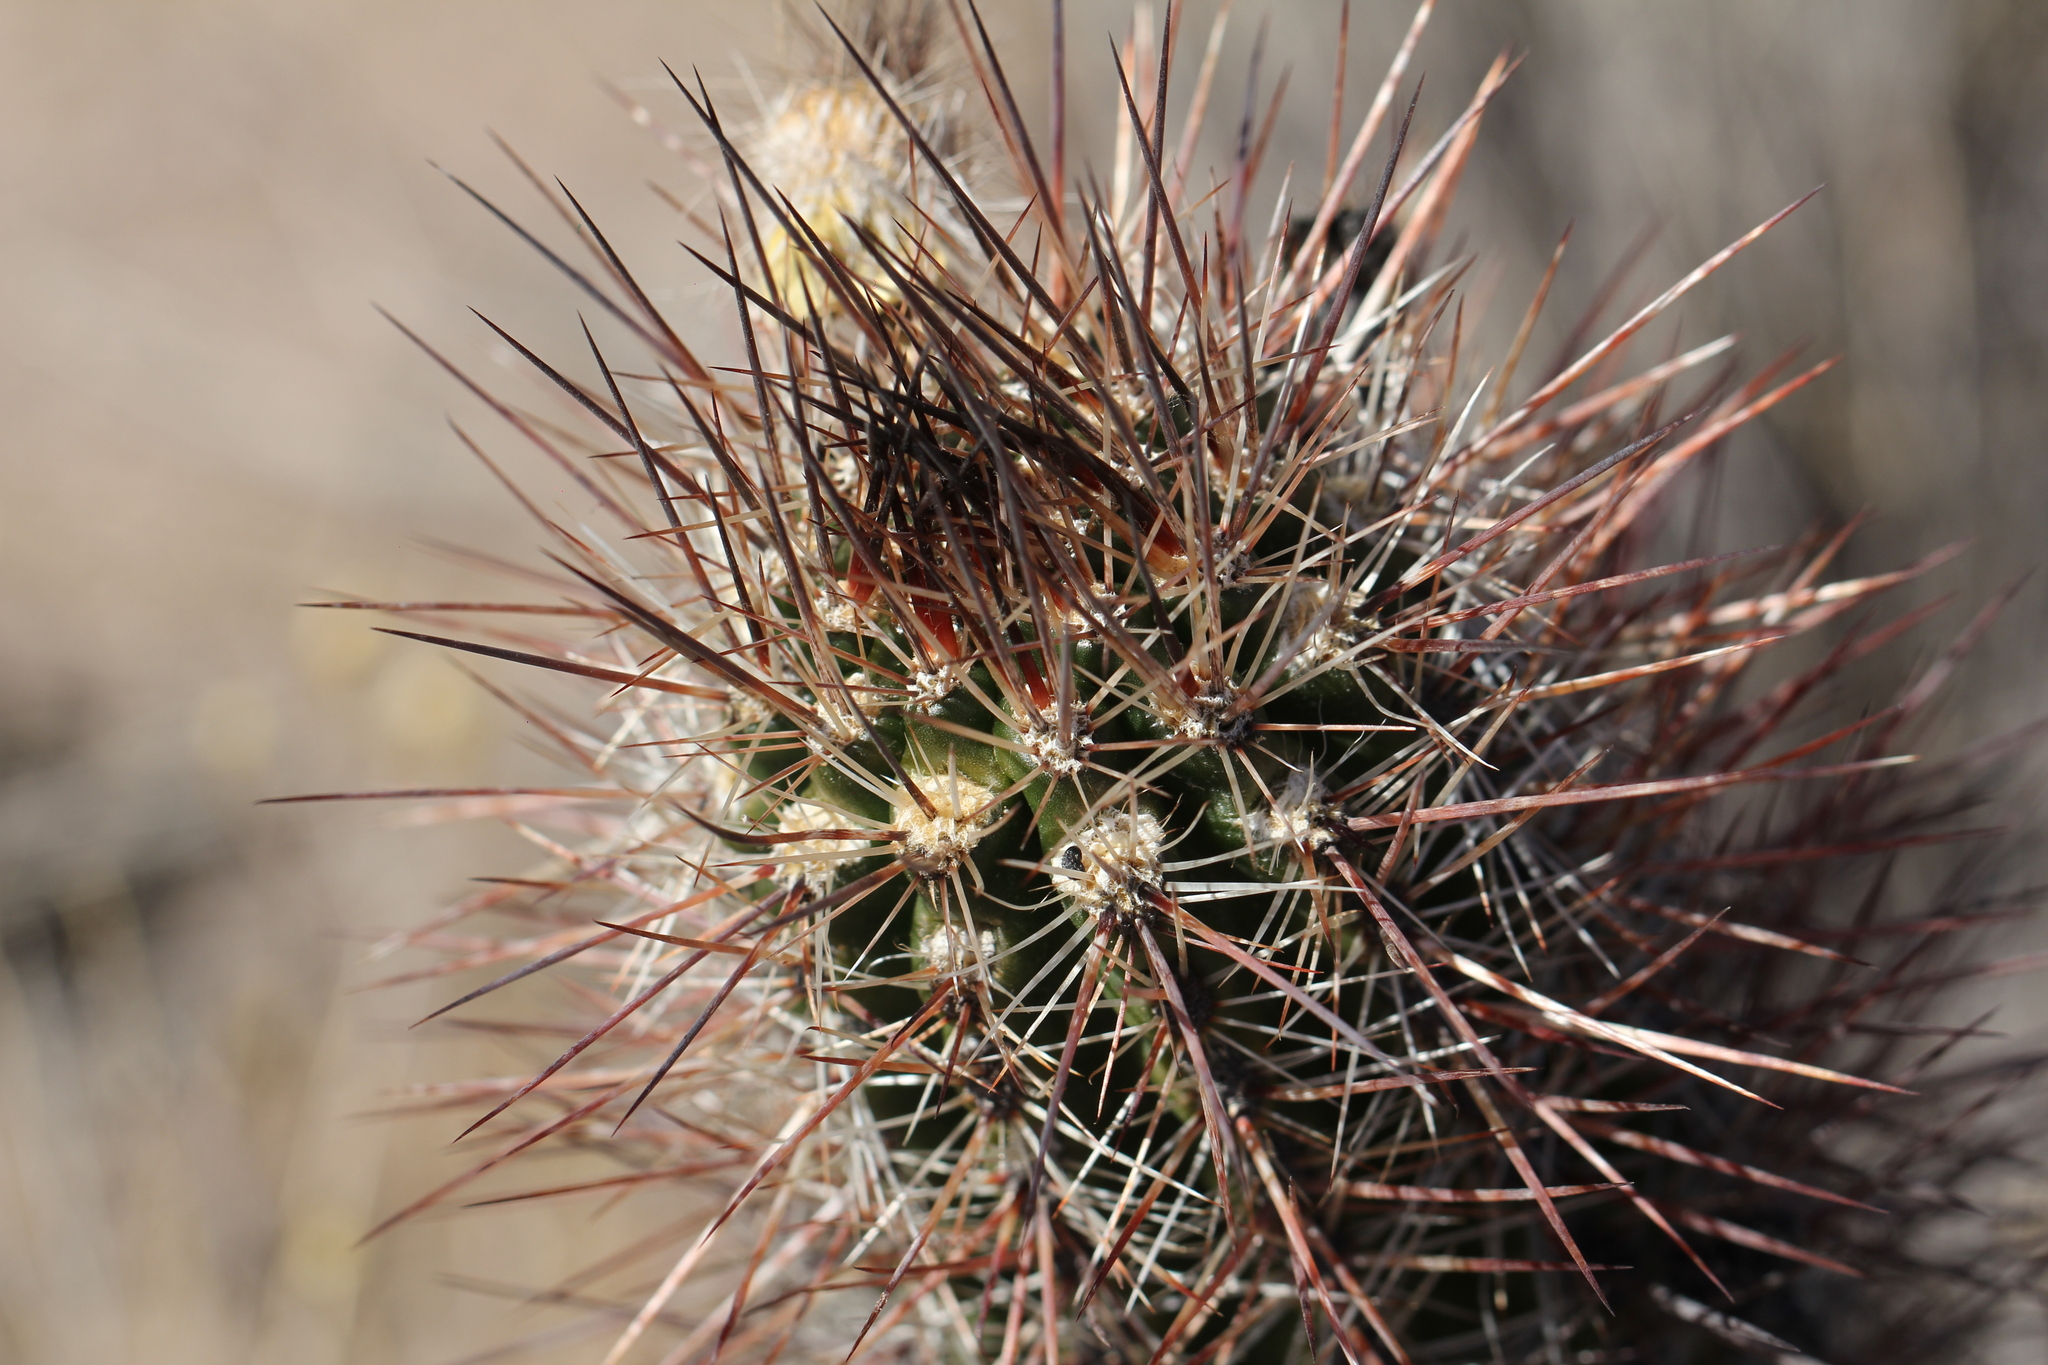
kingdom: Plantae
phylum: Tracheophyta
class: Magnoliopsida
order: Caryophyllales
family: Cactaceae
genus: Austrocactus
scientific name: Austrocactus bertinii
